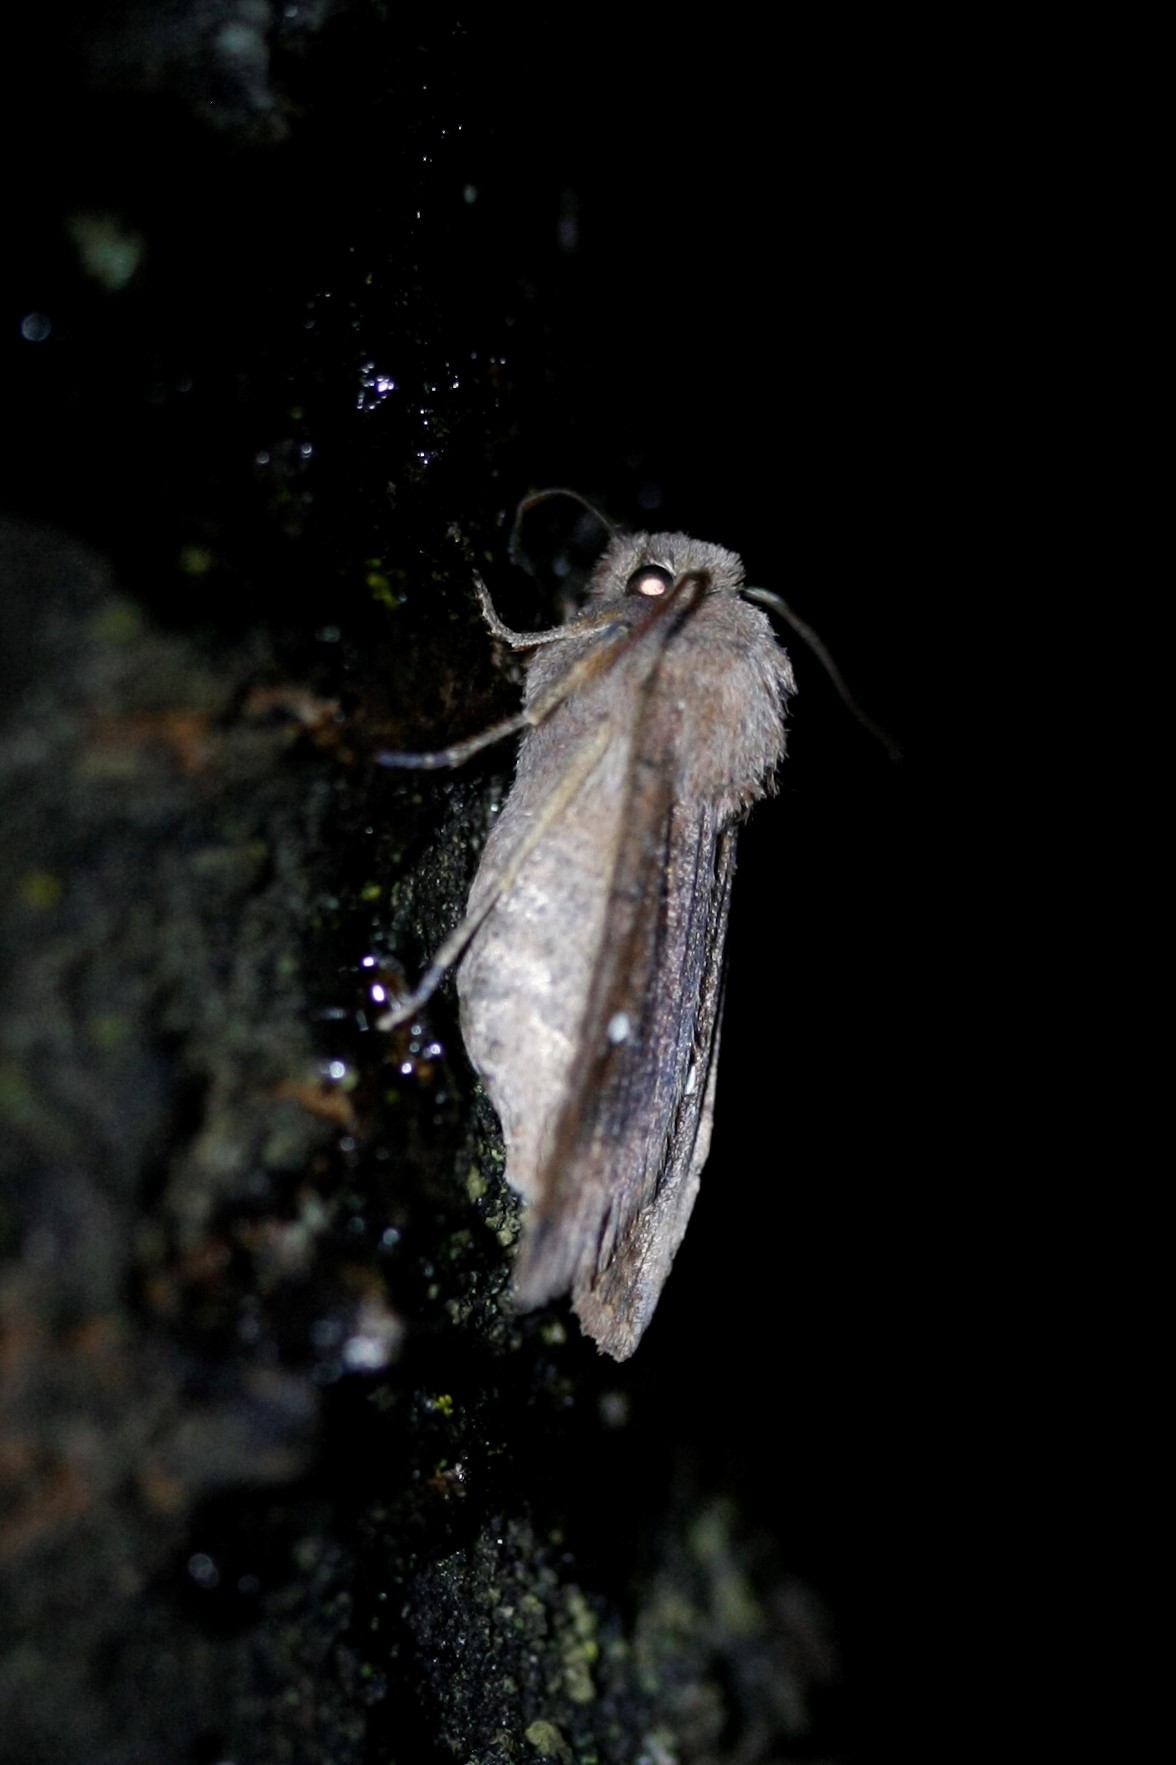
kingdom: Animalia
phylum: Arthropoda
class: Insecta
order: Lepidoptera
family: Noctuidae
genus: Eupsilia
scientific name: Eupsilia transversa
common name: Satellite
